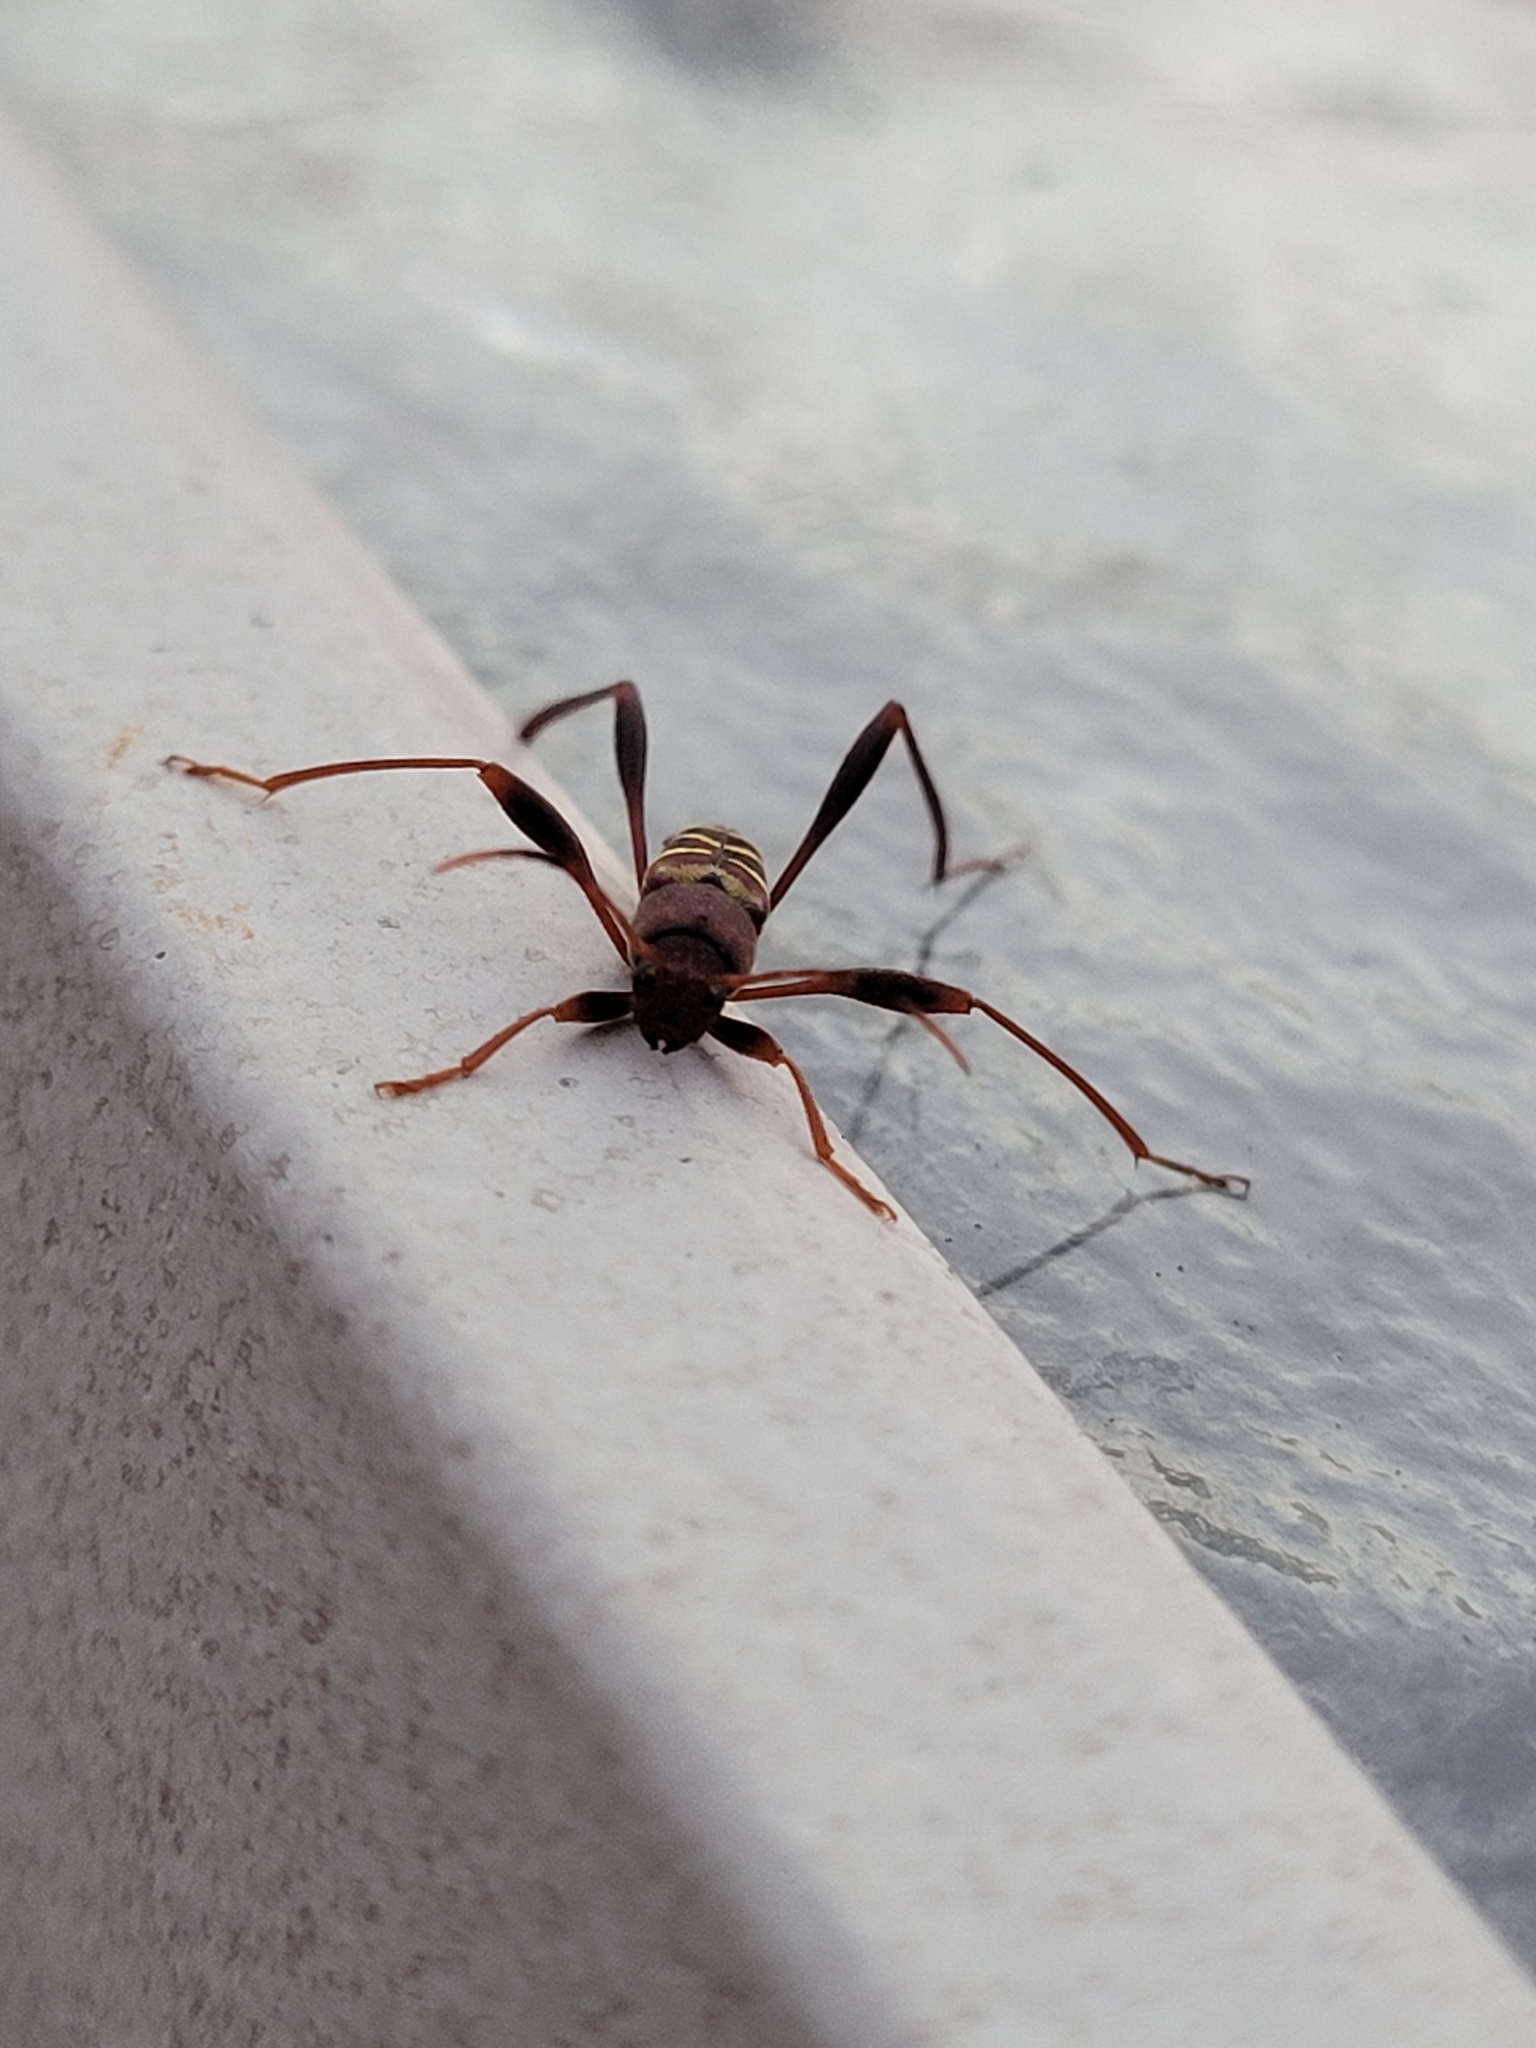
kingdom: Animalia
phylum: Arthropoda
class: Insecta
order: Coleoptera
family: Cerambycidae
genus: Neoclytus
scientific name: Neoclytus acuminatus
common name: Read-headed ash borer
